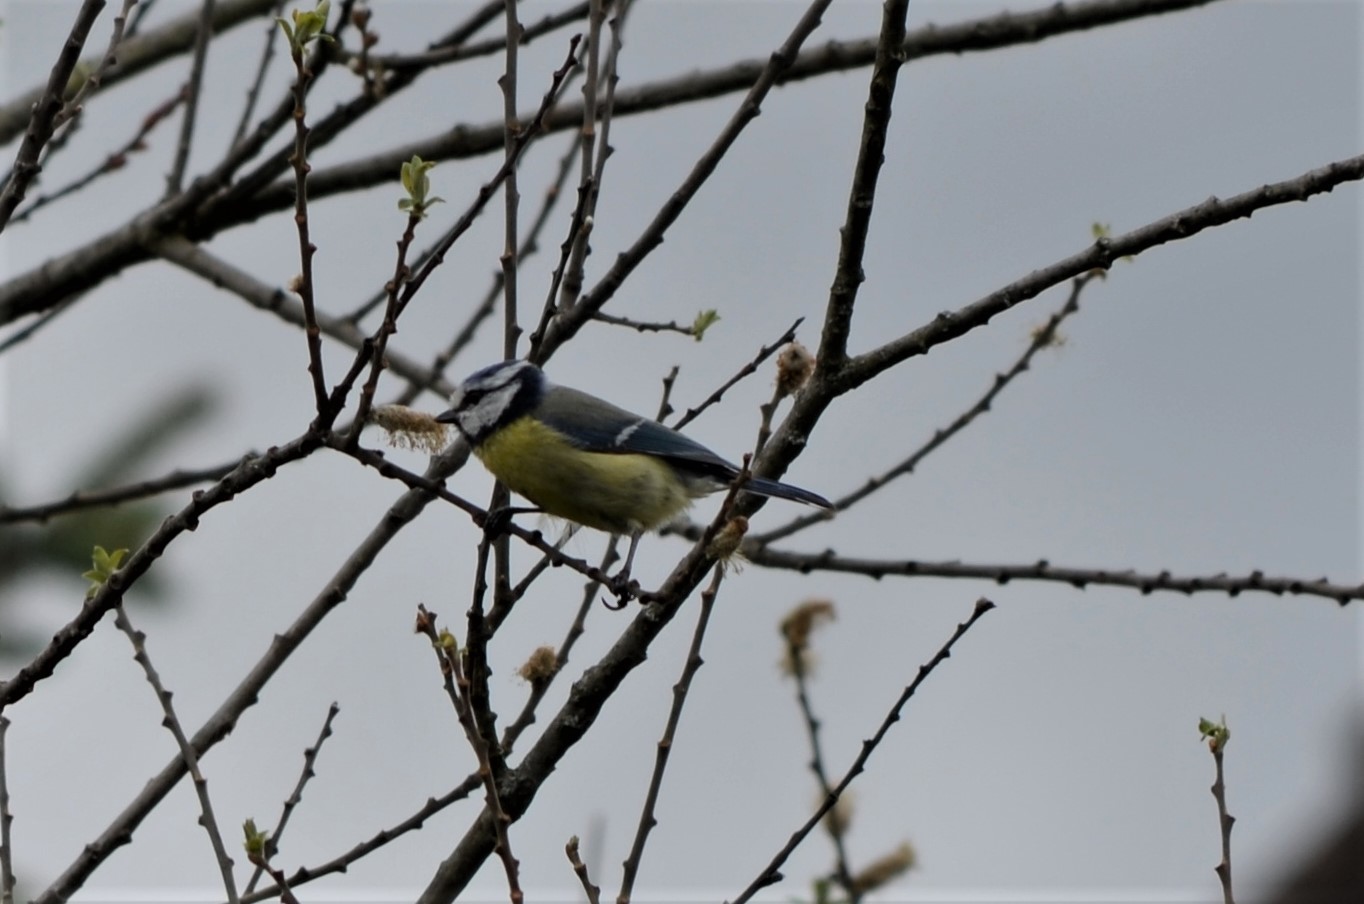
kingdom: Animalia
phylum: Chordata
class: Aves
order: Passeriformes
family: Paridae
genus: Cyanistes
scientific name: Cyanistes caeruleus
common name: Eurasian blue tit
